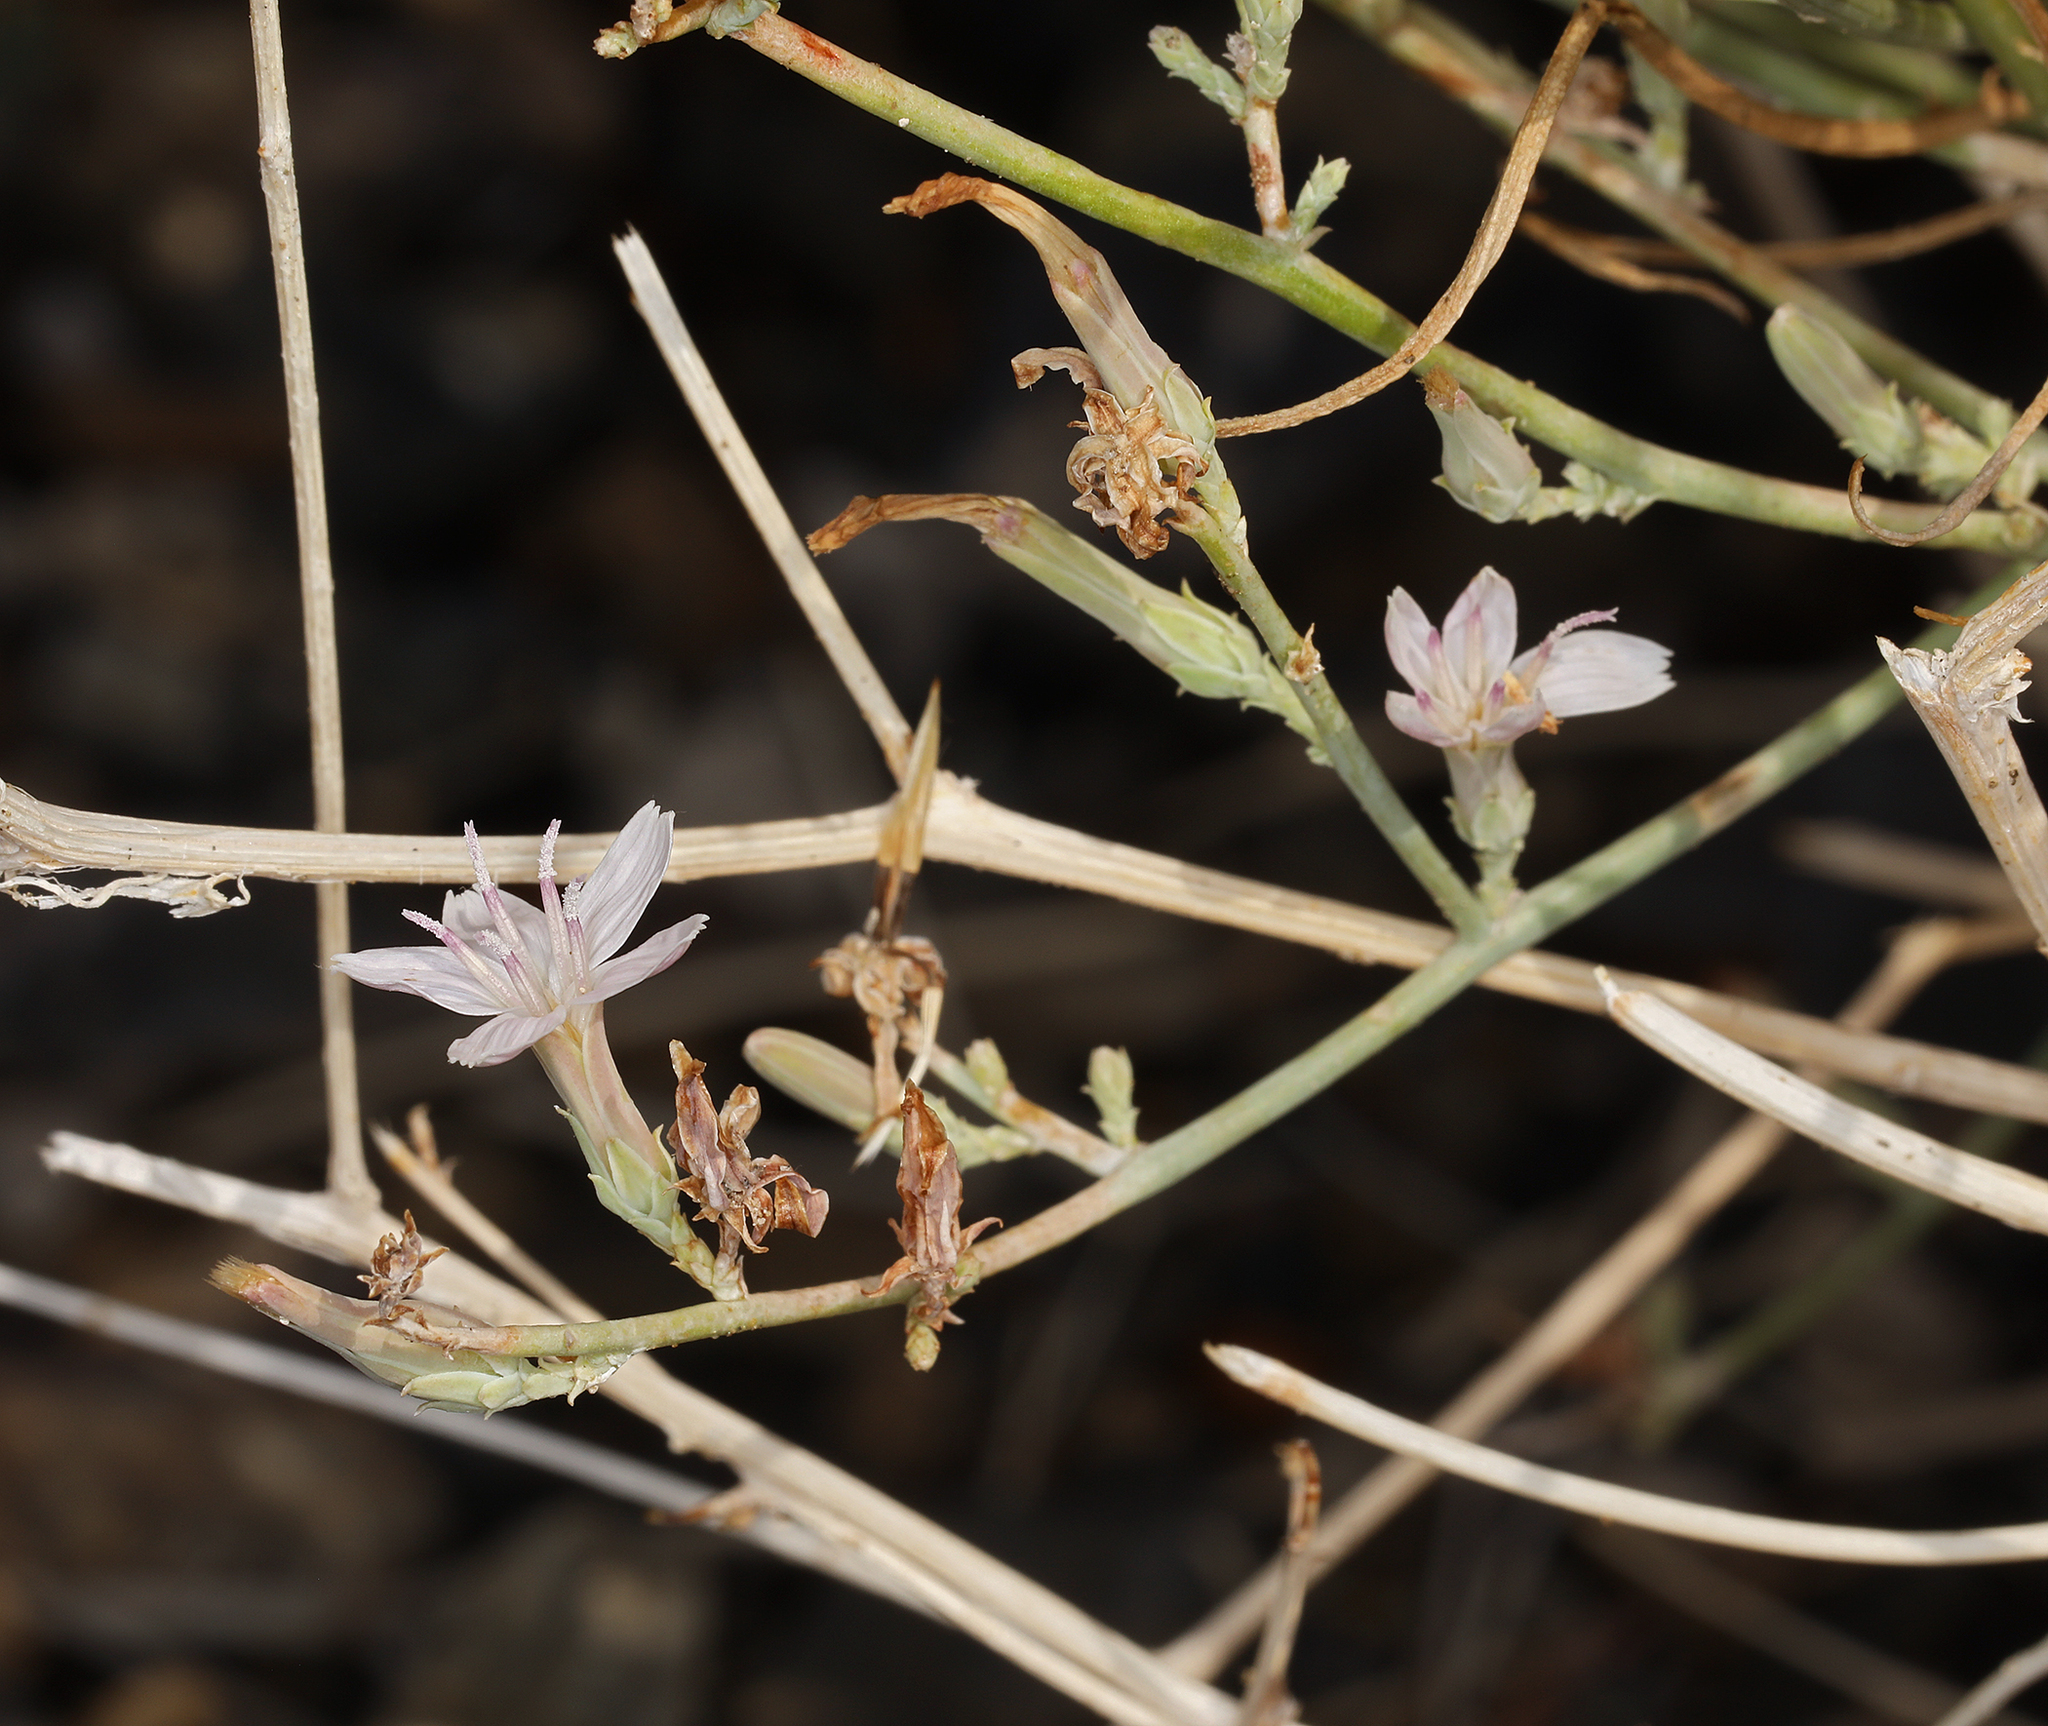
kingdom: Plantae
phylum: Tracheophyta
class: Magnoliopsida
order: Asterales
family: Asteraceae
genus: Stephanomeria
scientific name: Stephanomeria pauciflora
